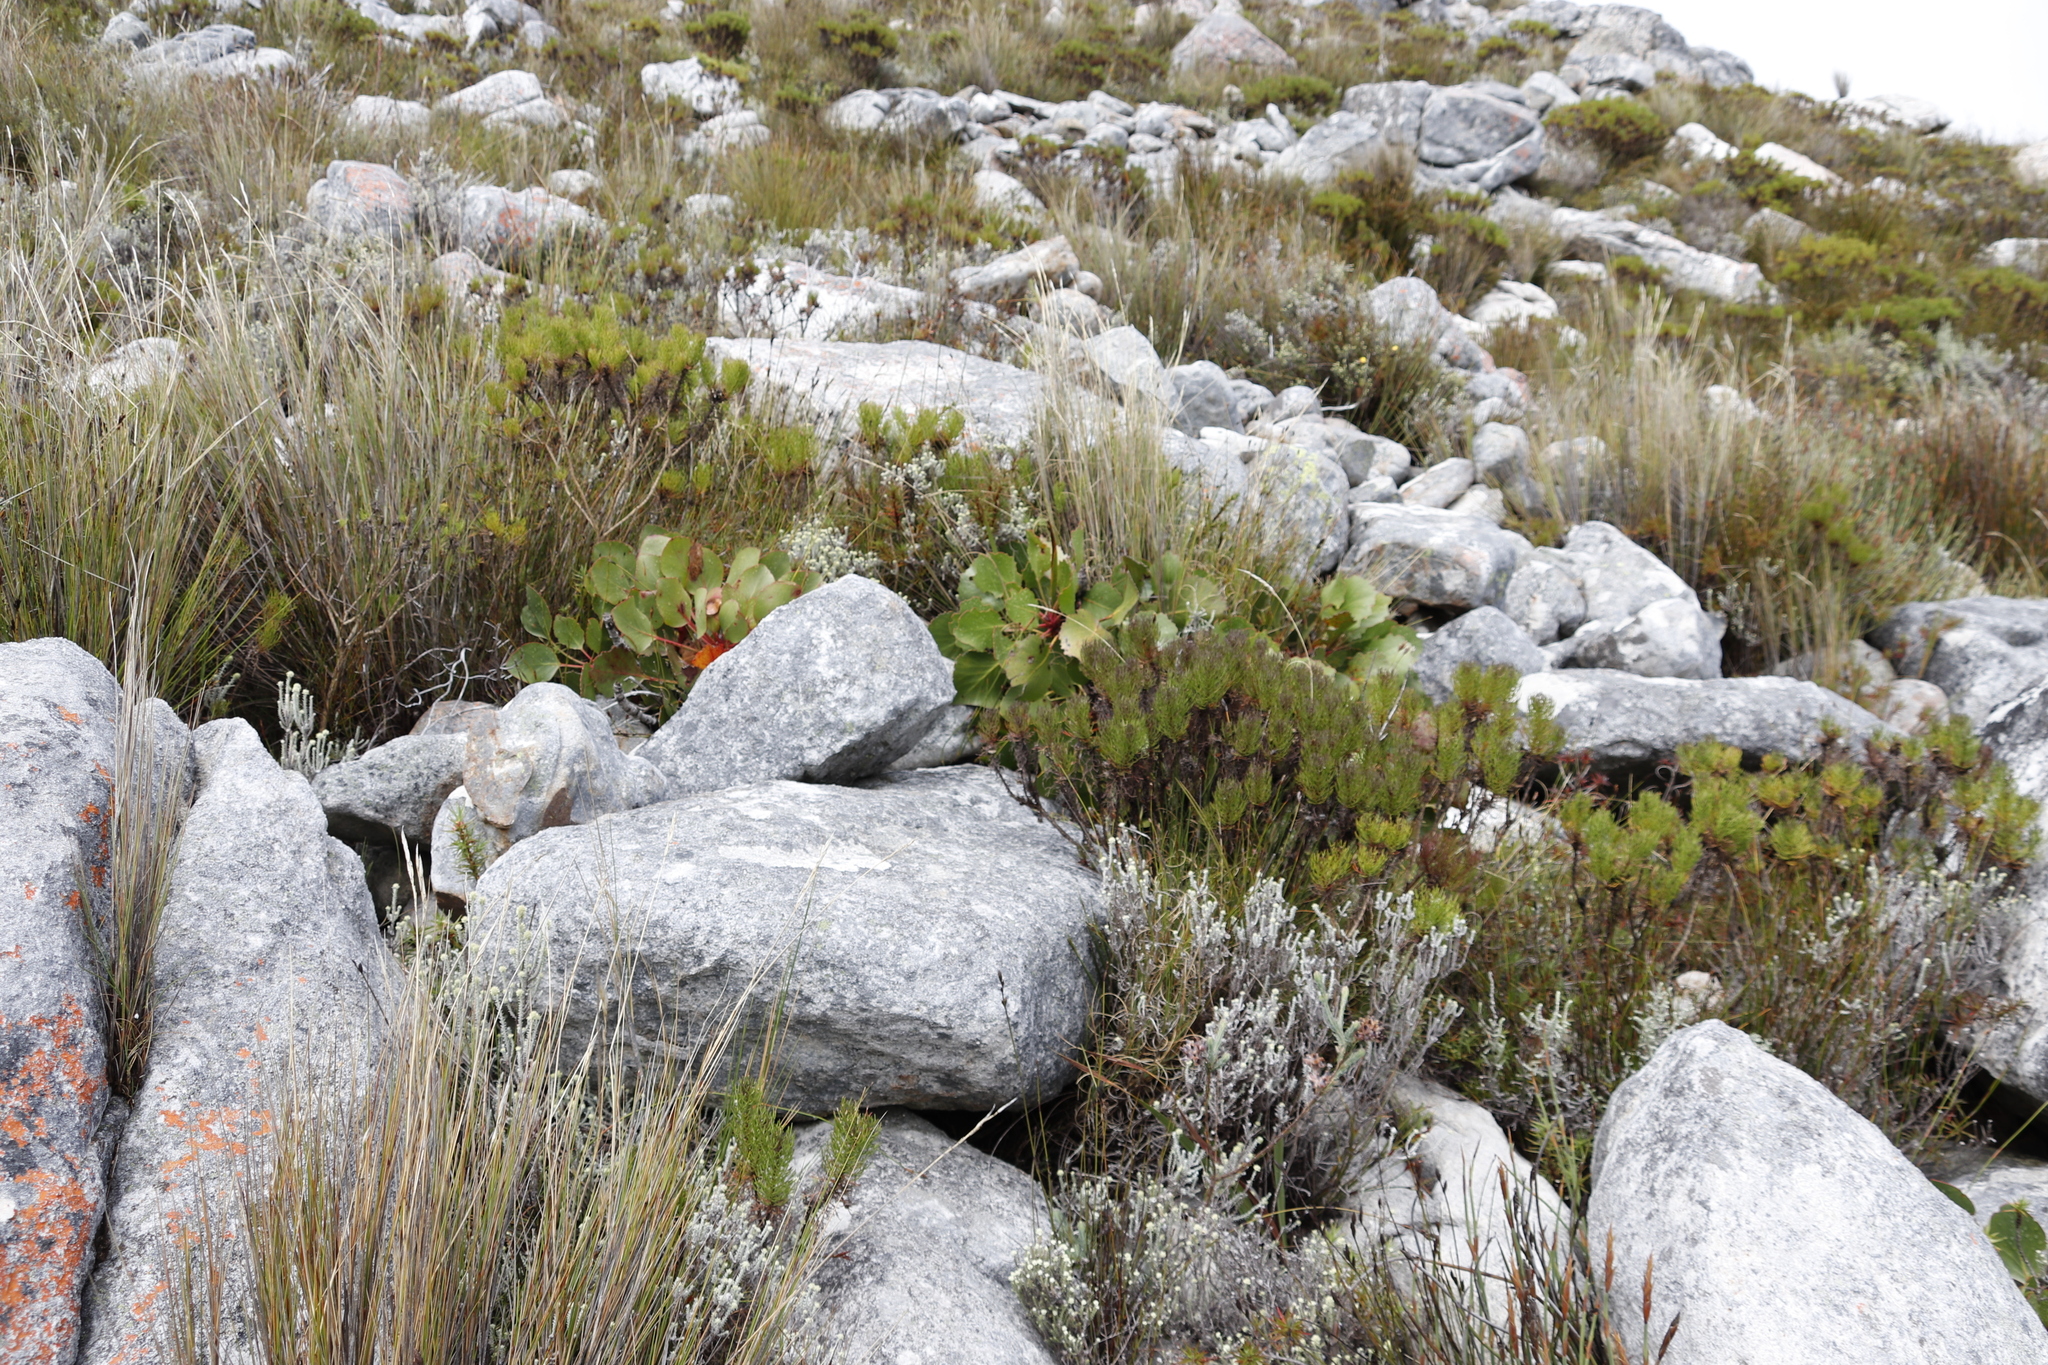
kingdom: Plantae
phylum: Tracheophyta
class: Magnoliopsida
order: Proteales
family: Proteaceae
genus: Protea
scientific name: Protea cynaroides
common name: King protea
